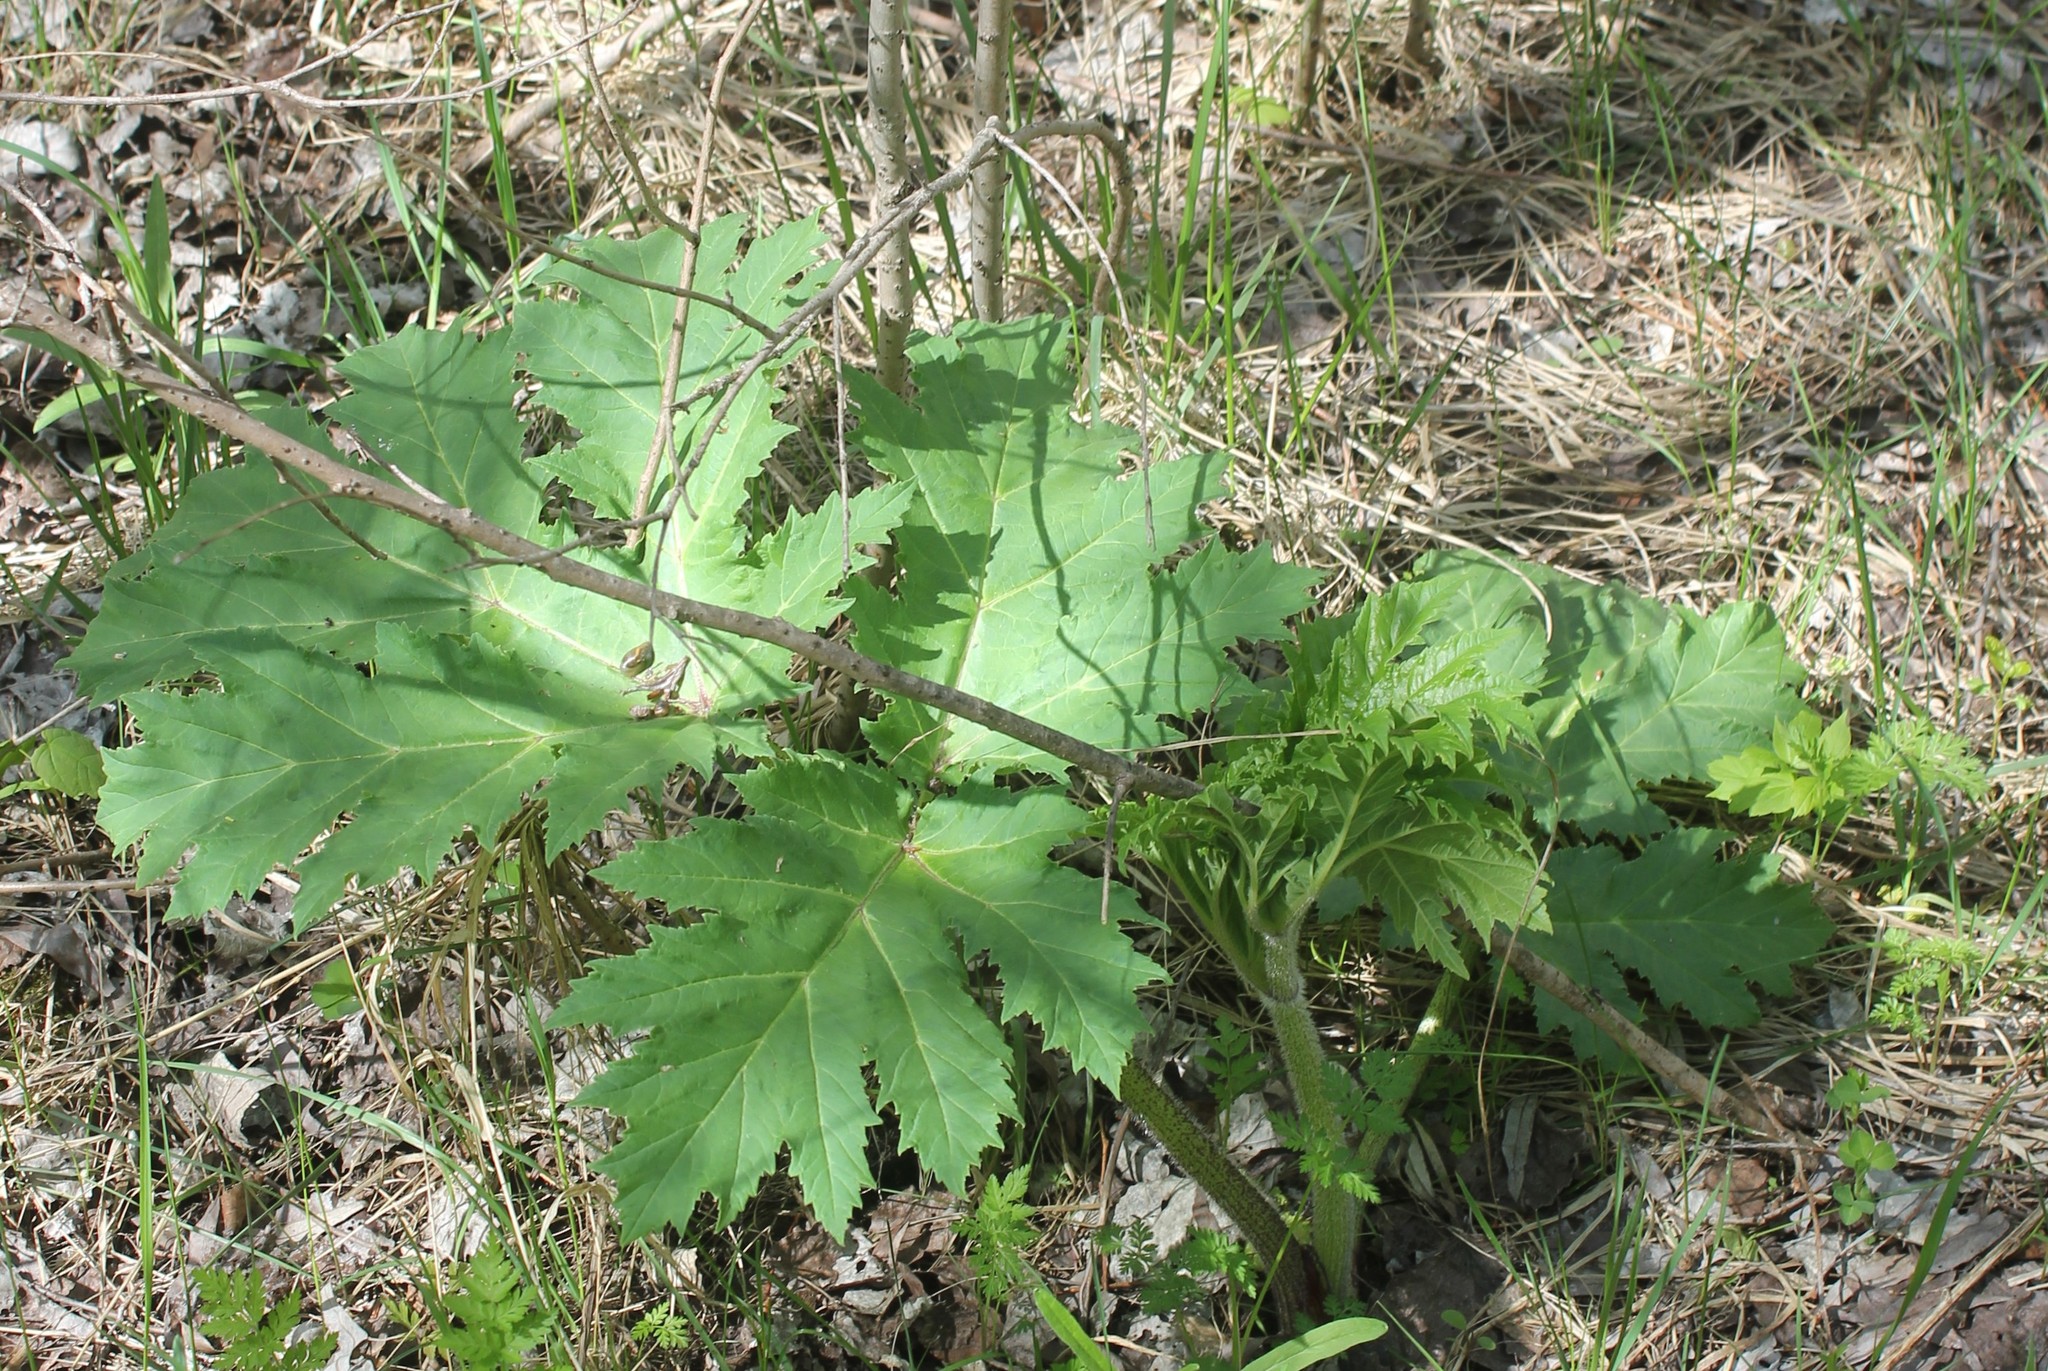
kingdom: Plantae
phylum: Tracheophyta
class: Magnoliopsida
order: Apiales
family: Apiaceae
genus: Heracleum
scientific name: Heracleum sosnowskyi
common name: Sosnowsky's hogweed
